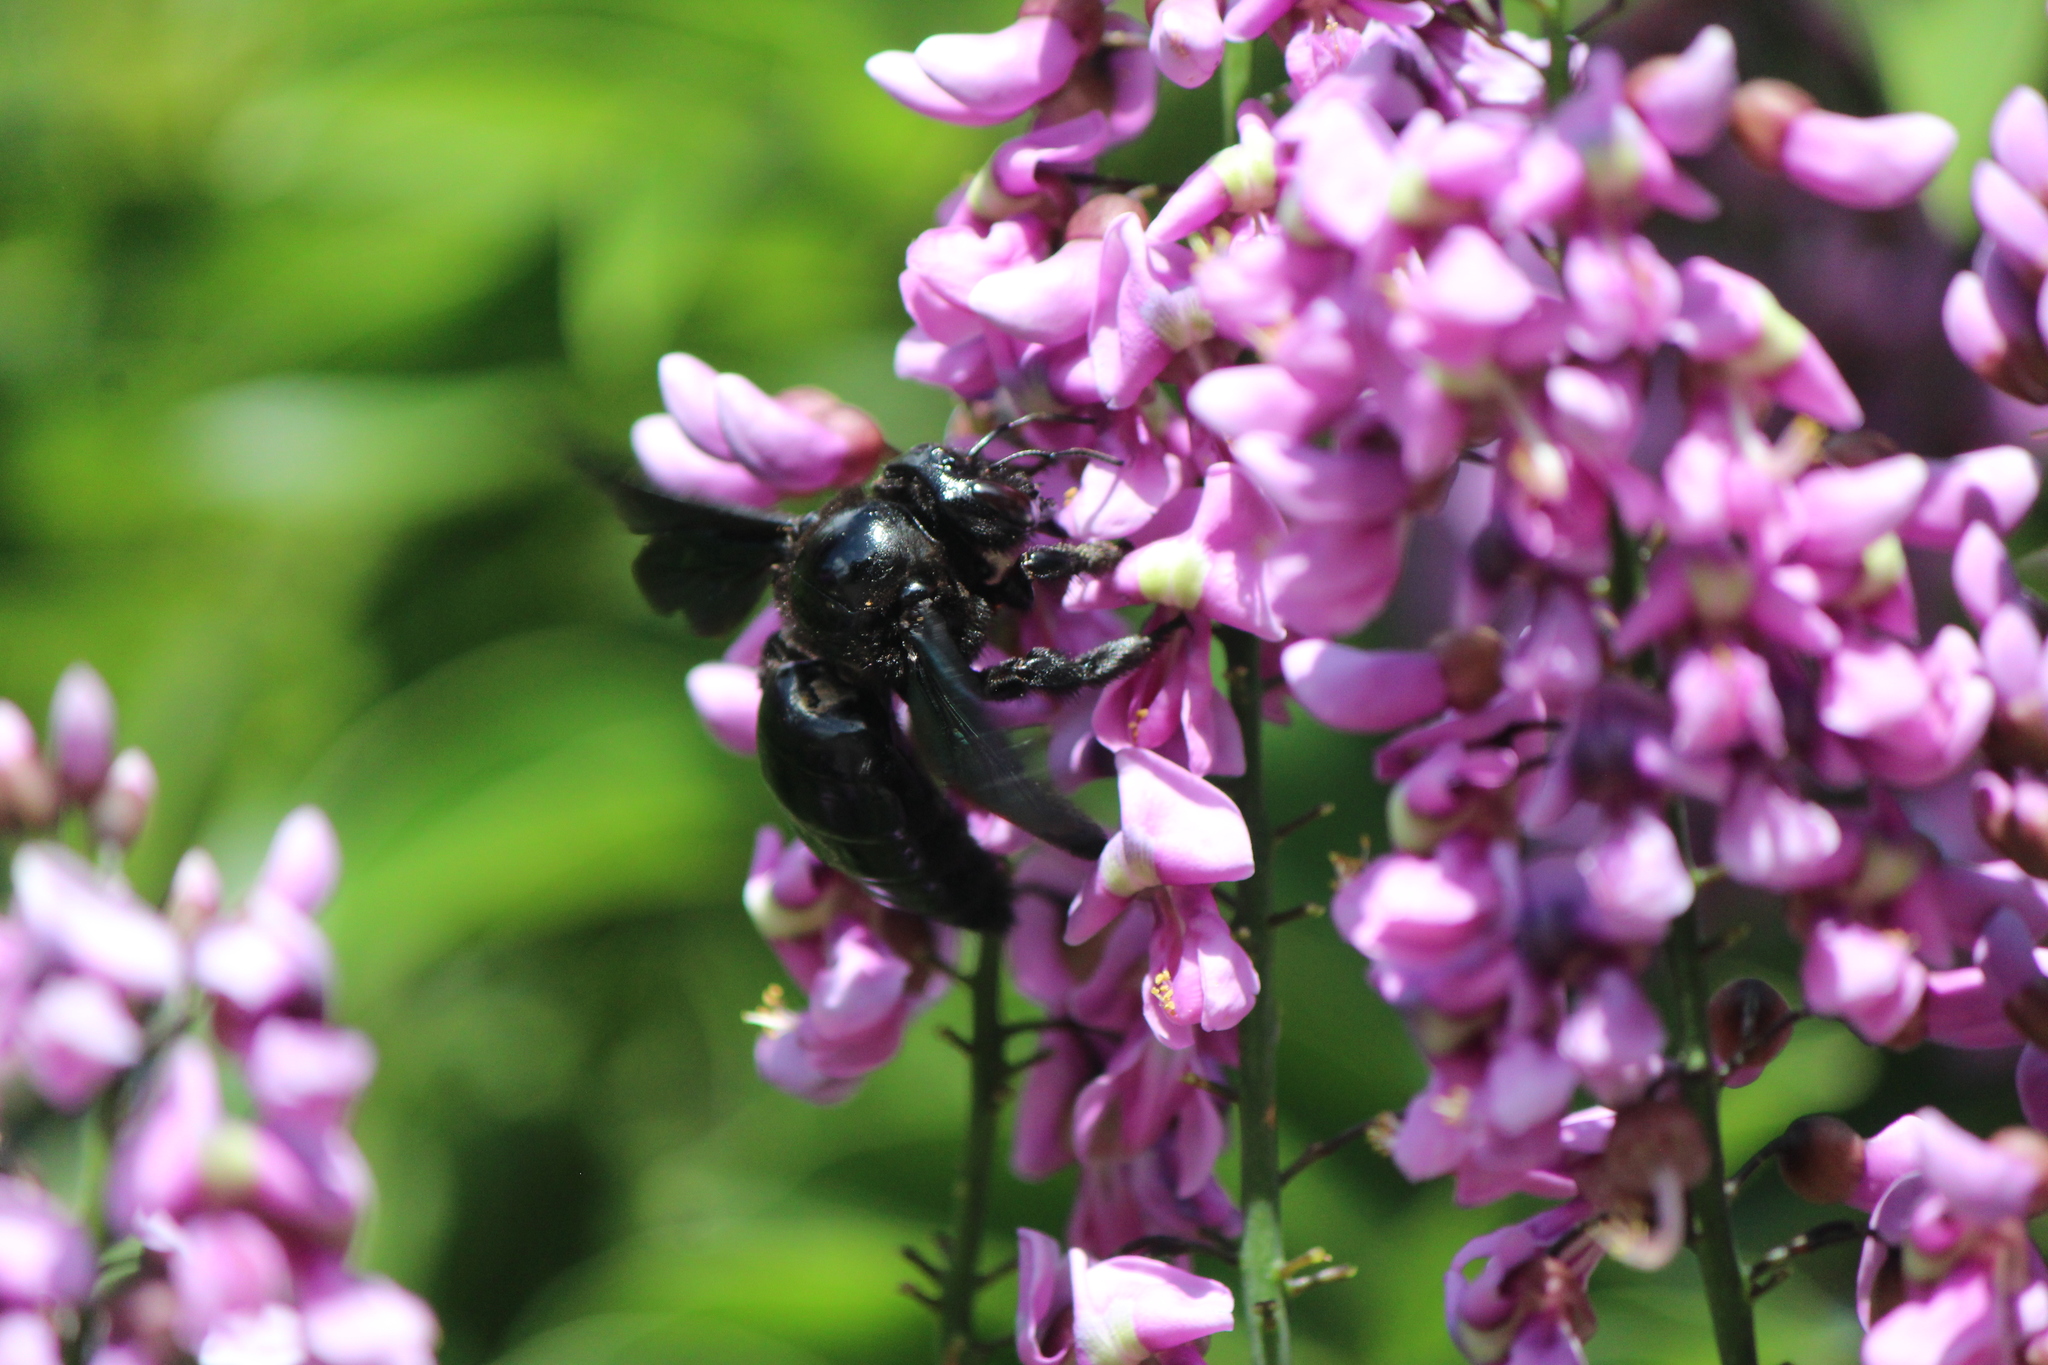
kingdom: Animalia
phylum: Arthropoda
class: Insecta
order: Hymenoptera
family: Apidae
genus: Xylocopa
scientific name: Xylocopa nautlana
